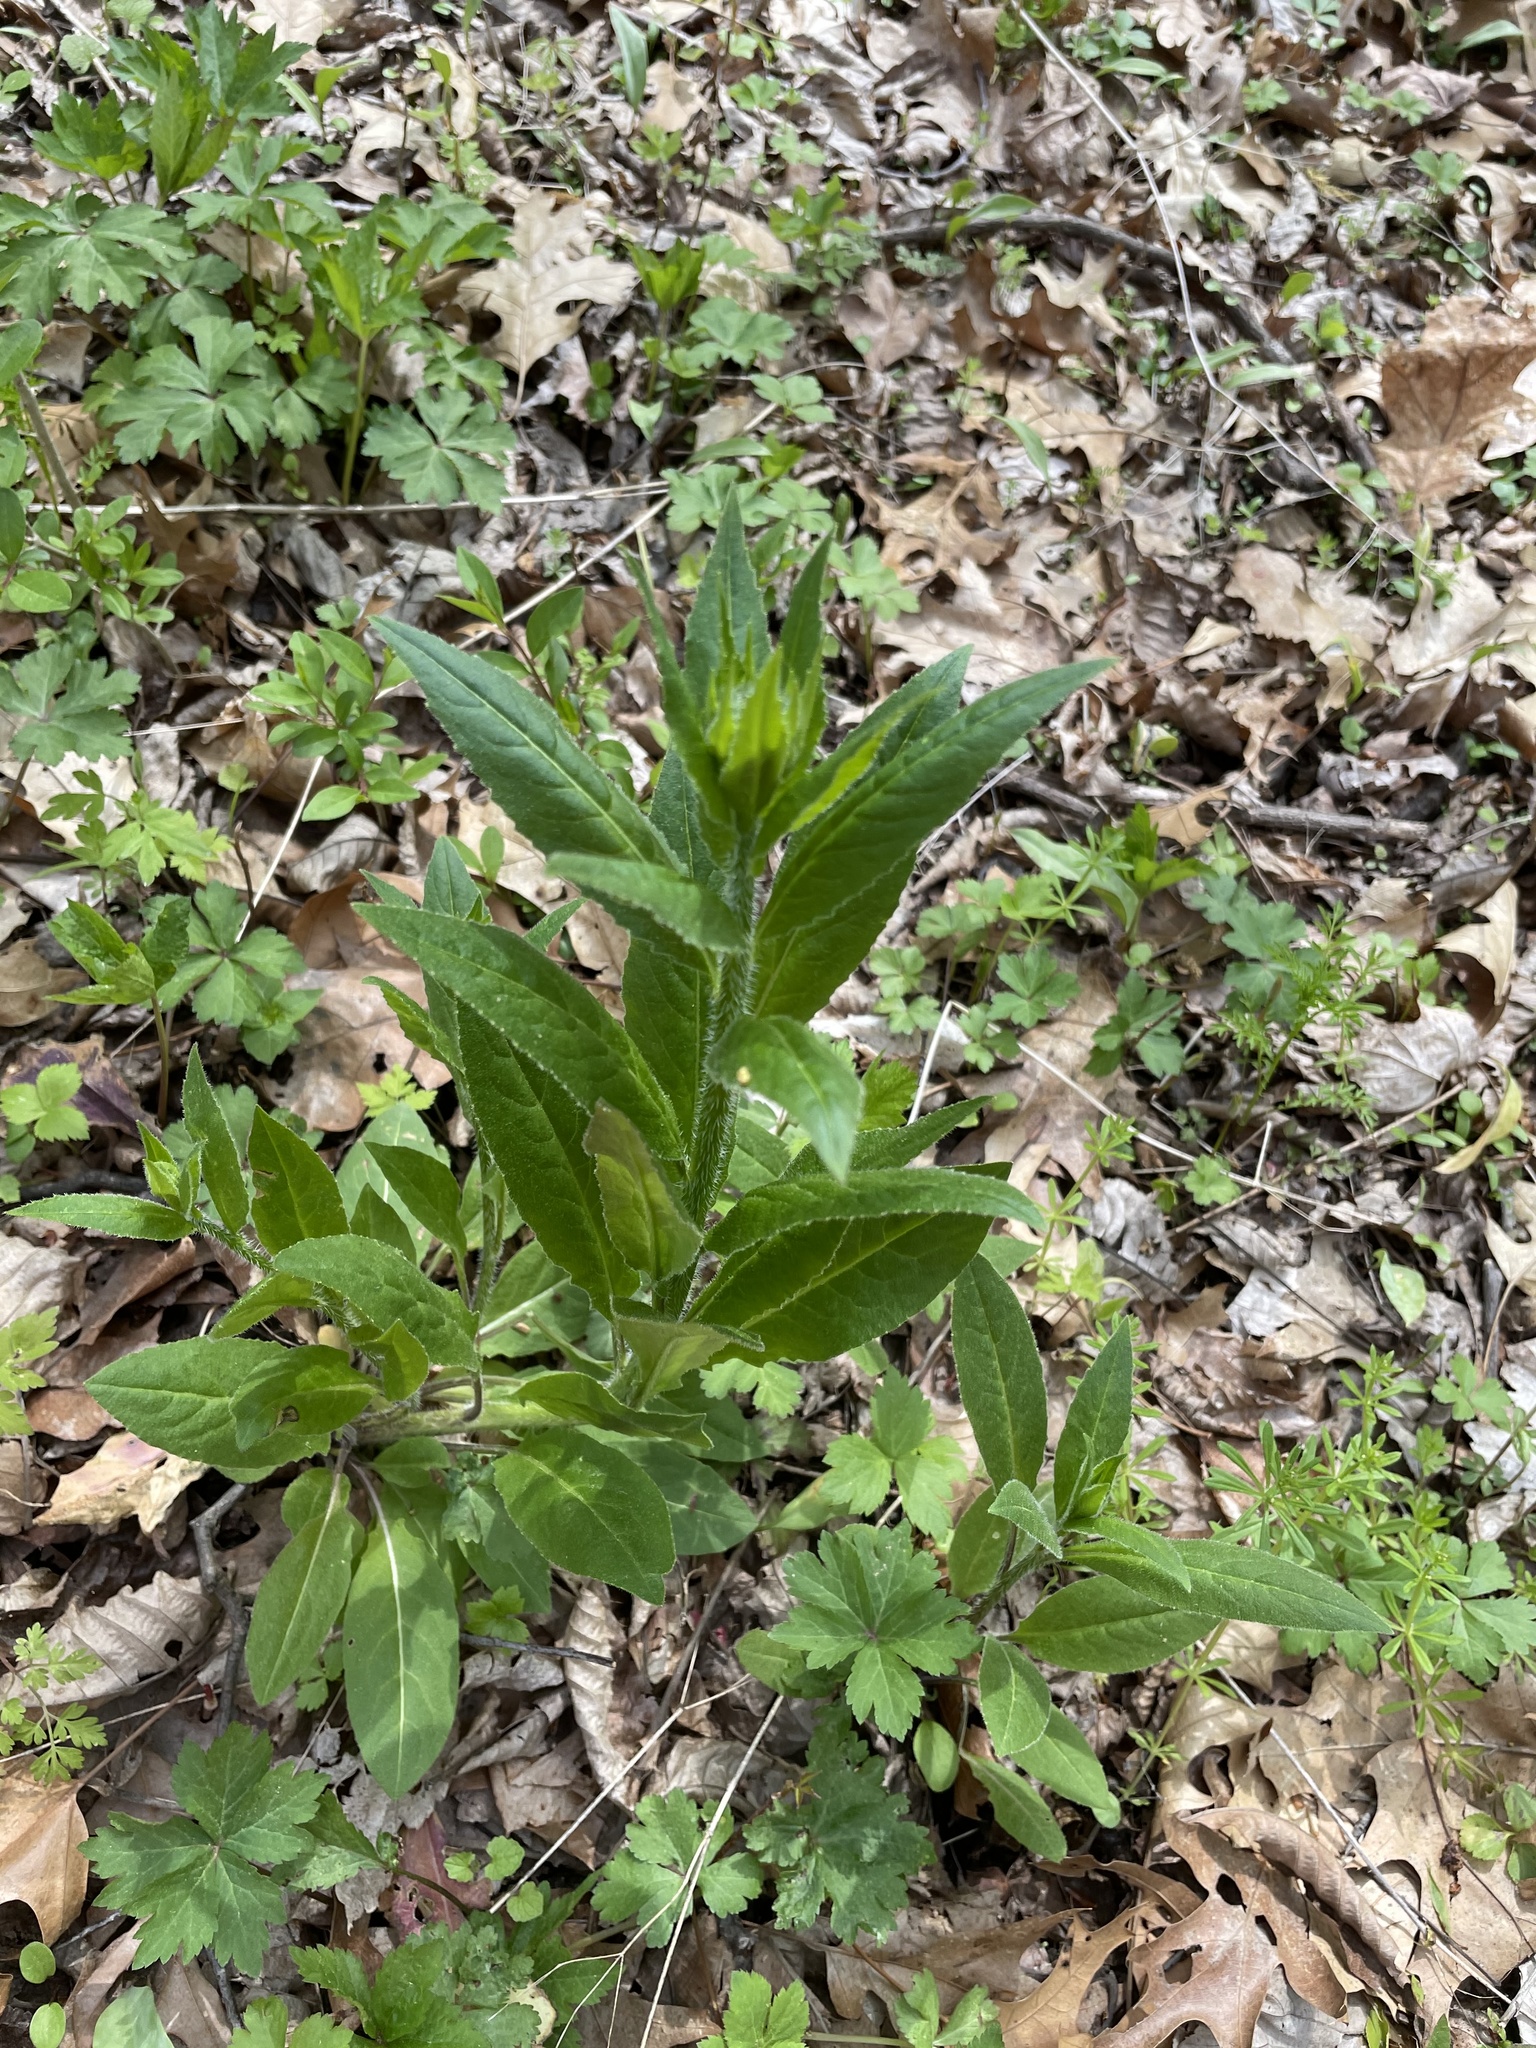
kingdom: Plantae
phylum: Tracheophyta
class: Magnoliopsida
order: Brassicales
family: Brassicaceae
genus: Hesperis
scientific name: Hesperis matronalis
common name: Dame's-violet
